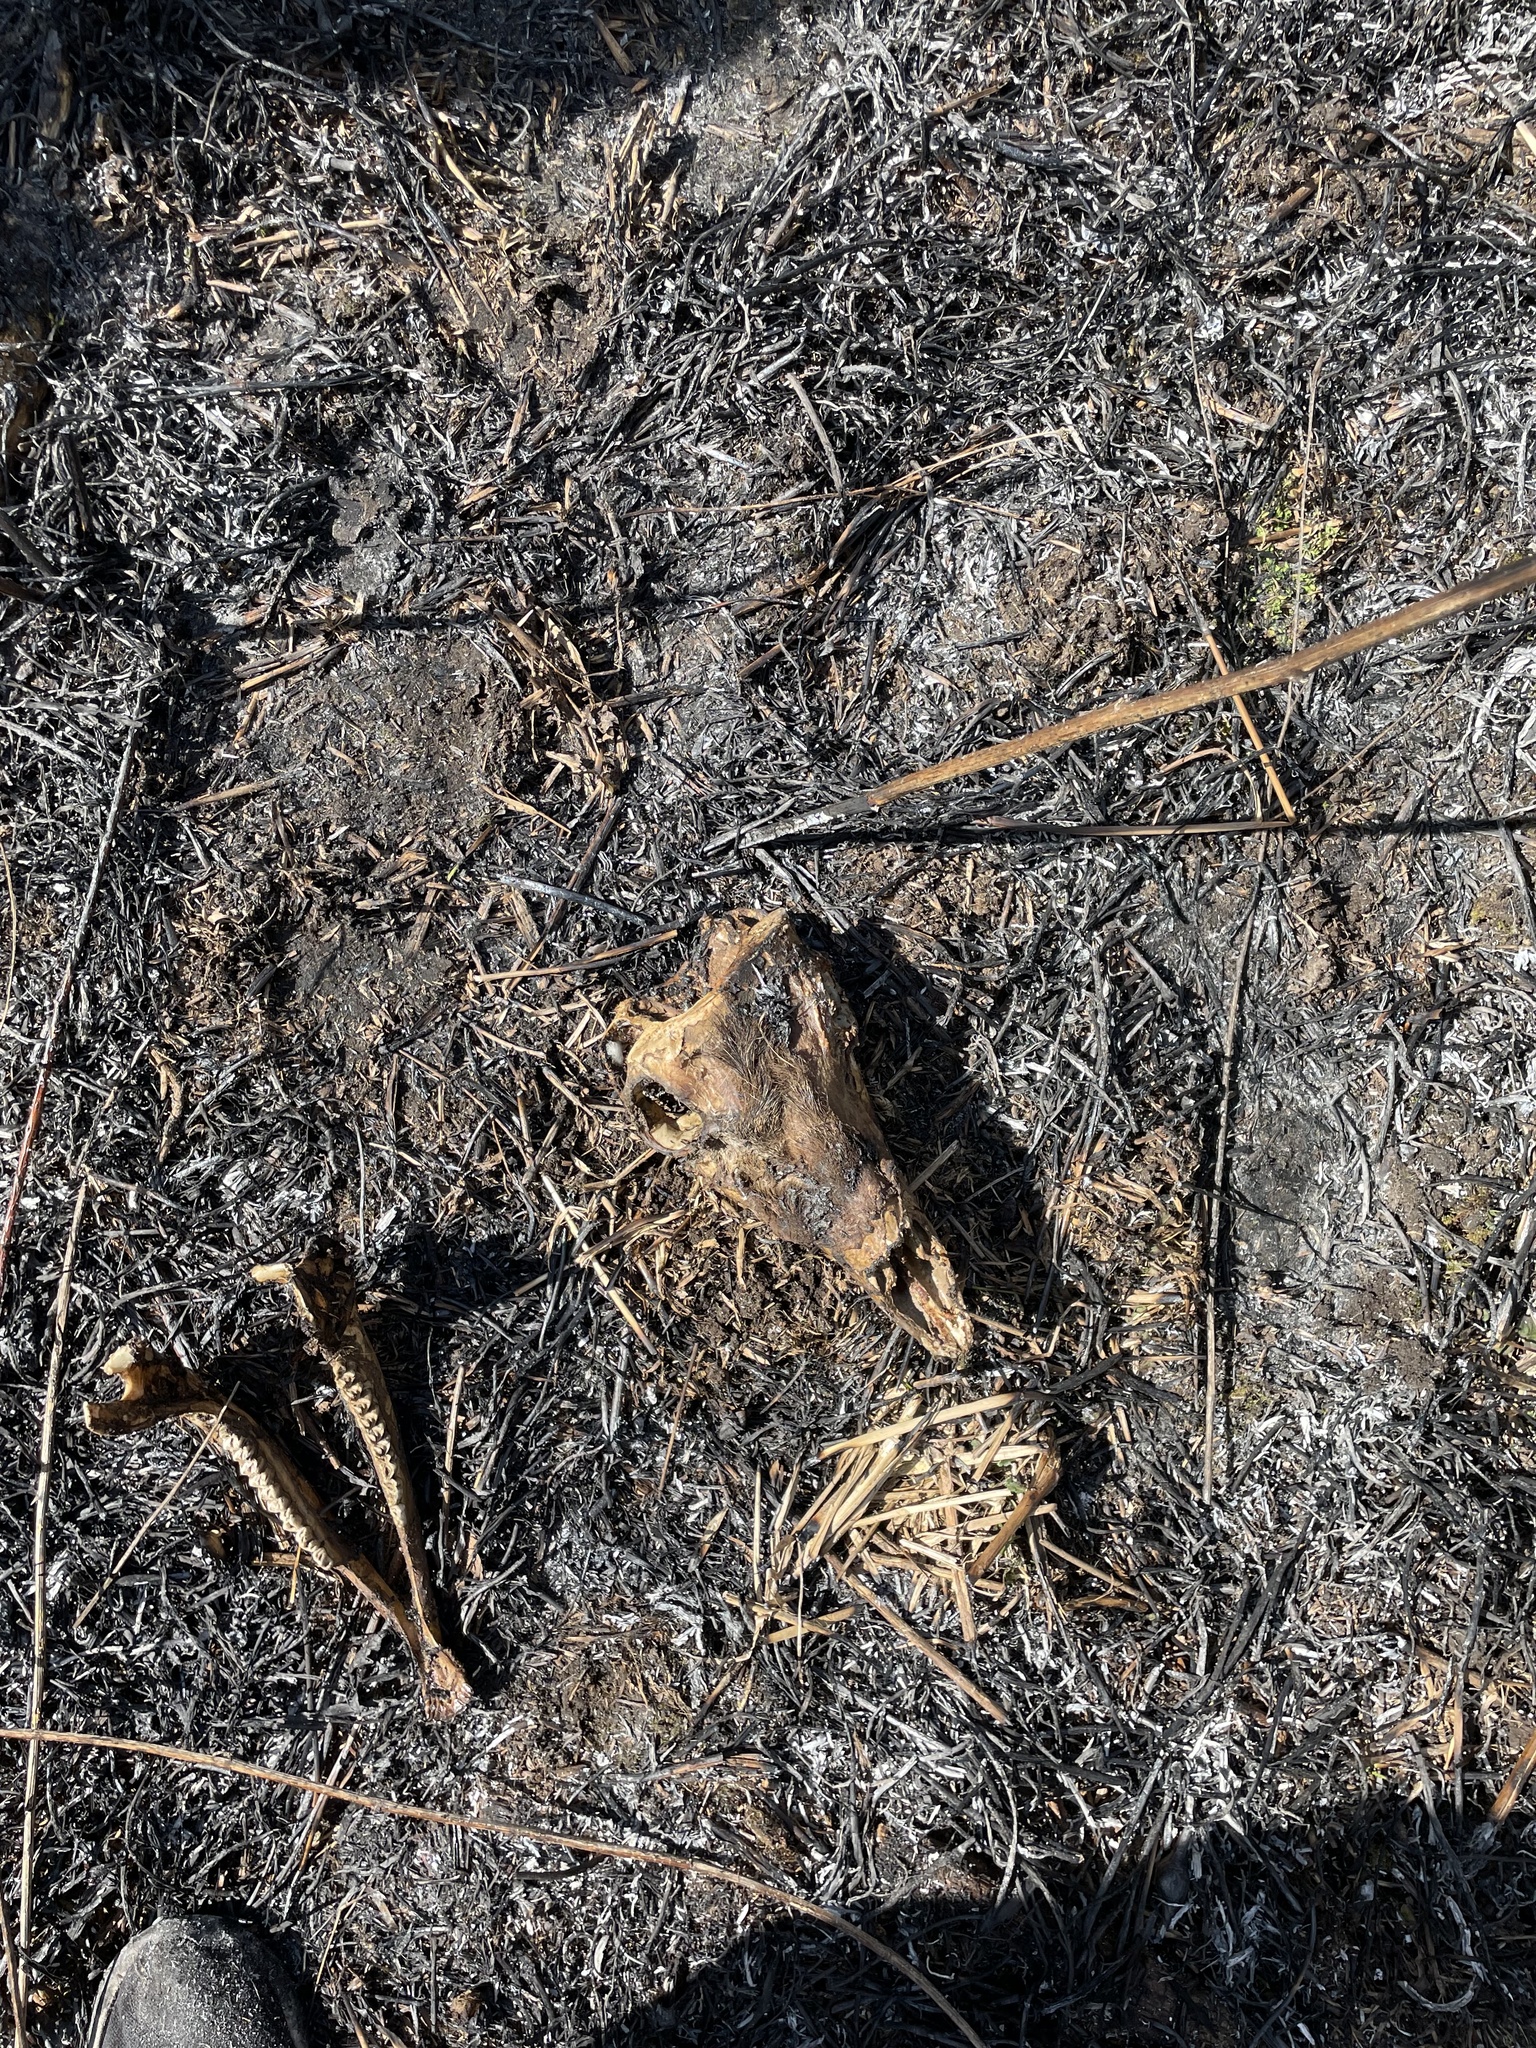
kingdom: Animalia
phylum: Chordata
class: Mammalia
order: Artiodactyla
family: Cervidae
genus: Odocoileus
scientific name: Odocoileus virginianus
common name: White-tailed deer
